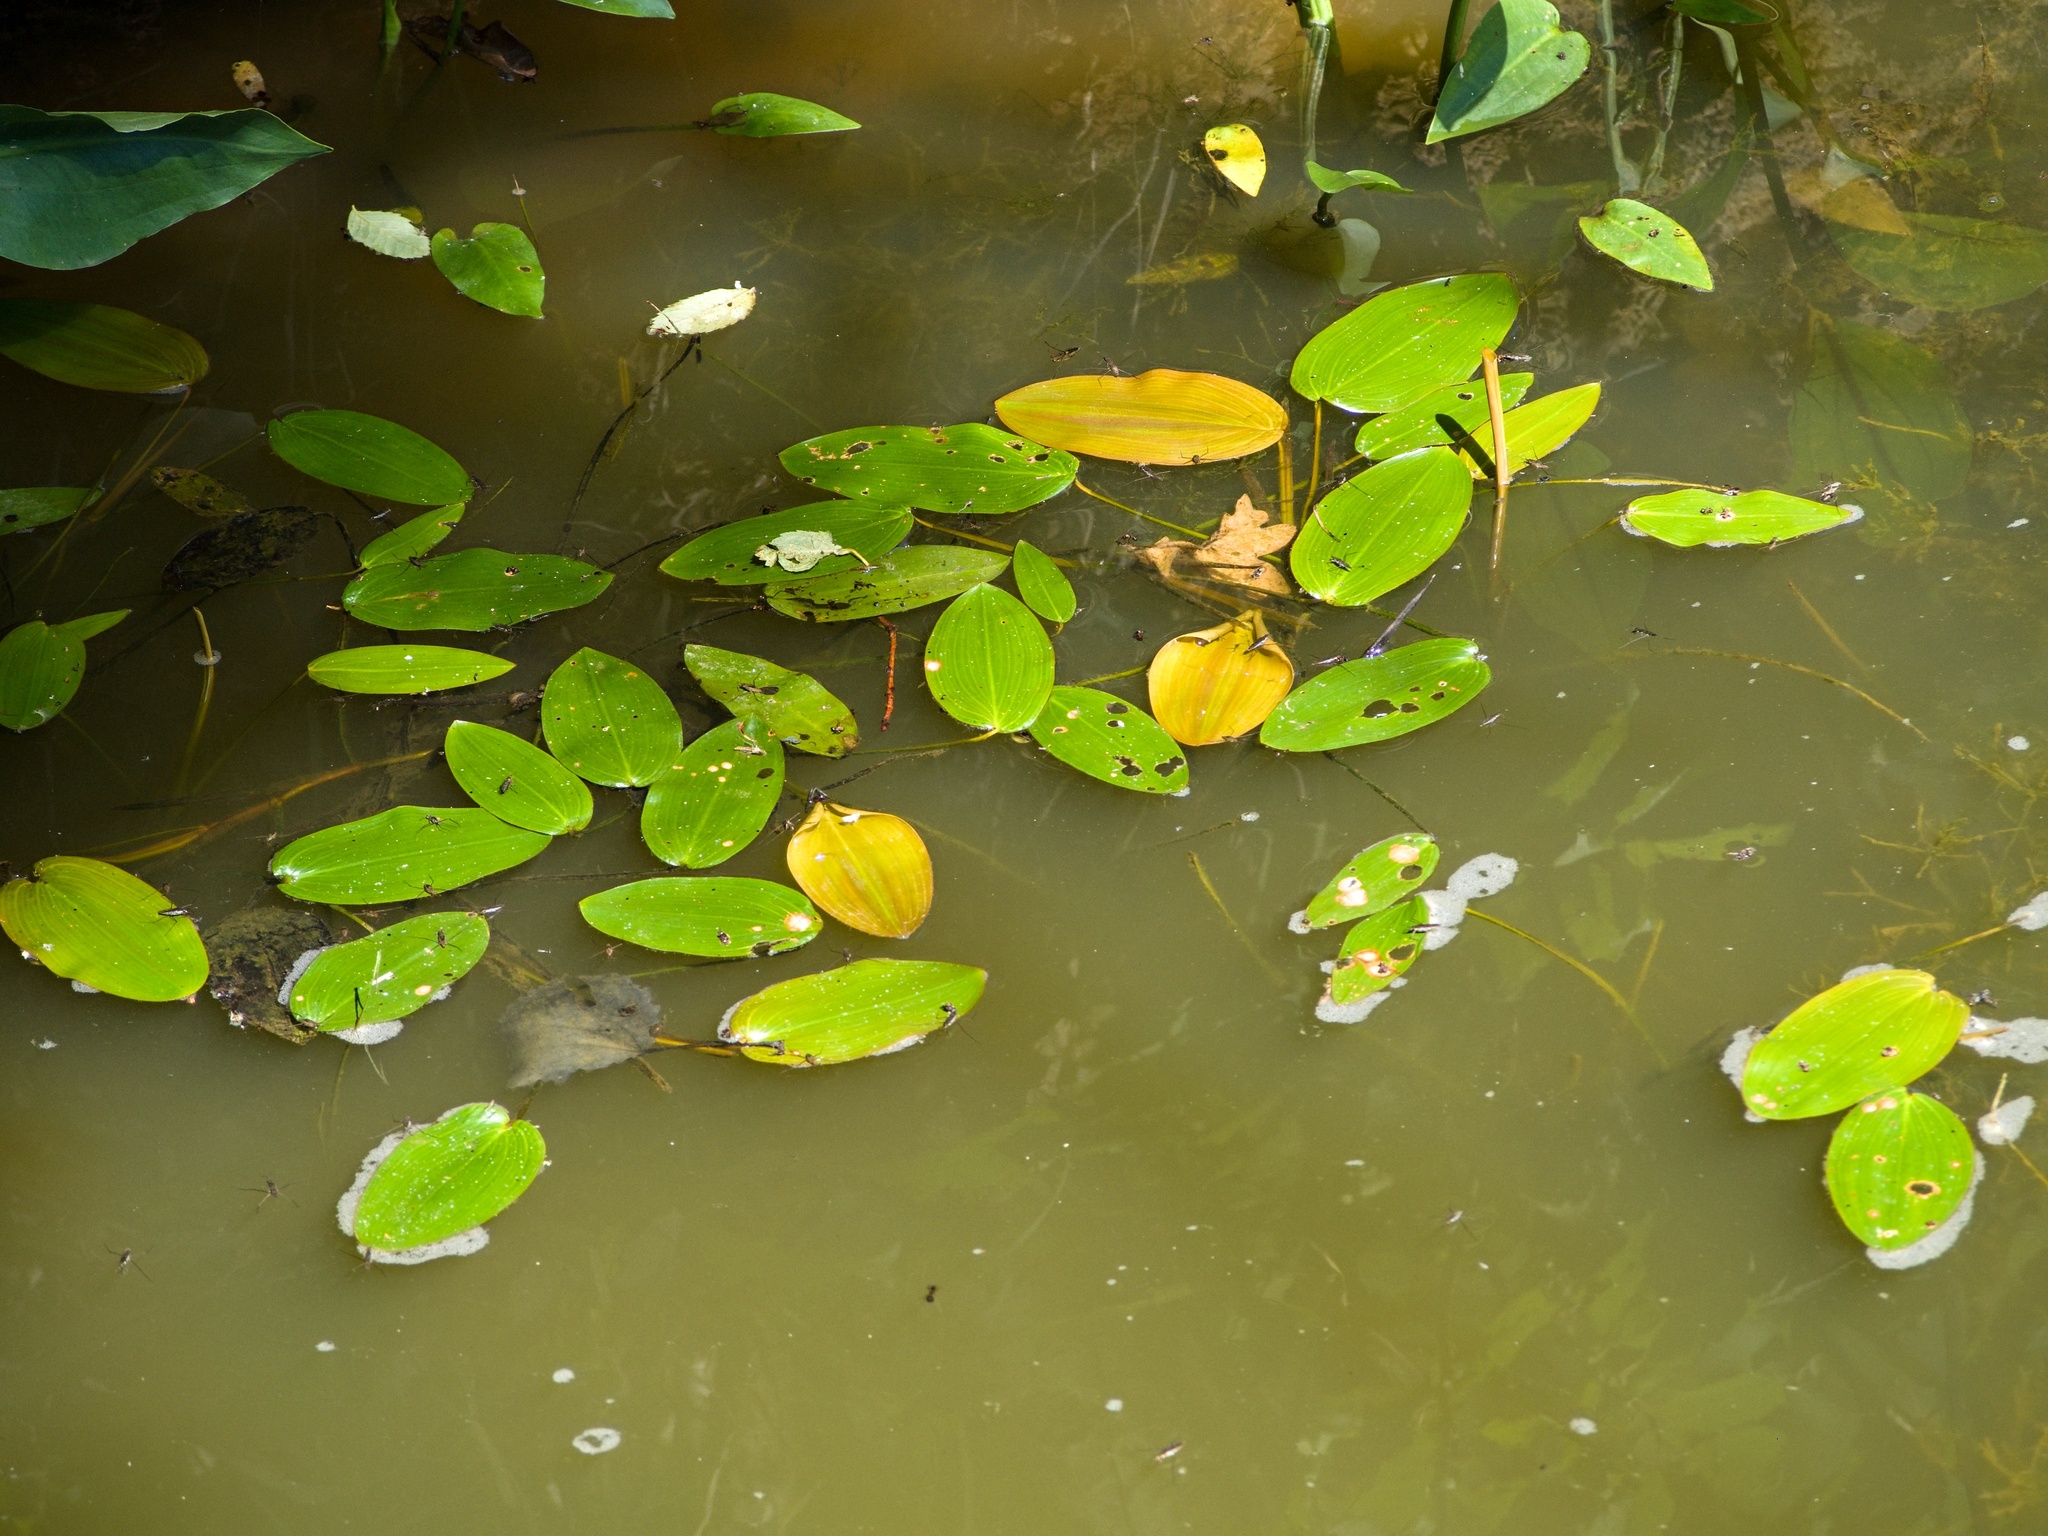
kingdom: Plantae
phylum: Tracheophyta
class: Liliopsida
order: Alismatales
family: Potamogetonaceae
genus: Potamogeton
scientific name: Potamogeton natans
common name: Broad-leaved pondweed
